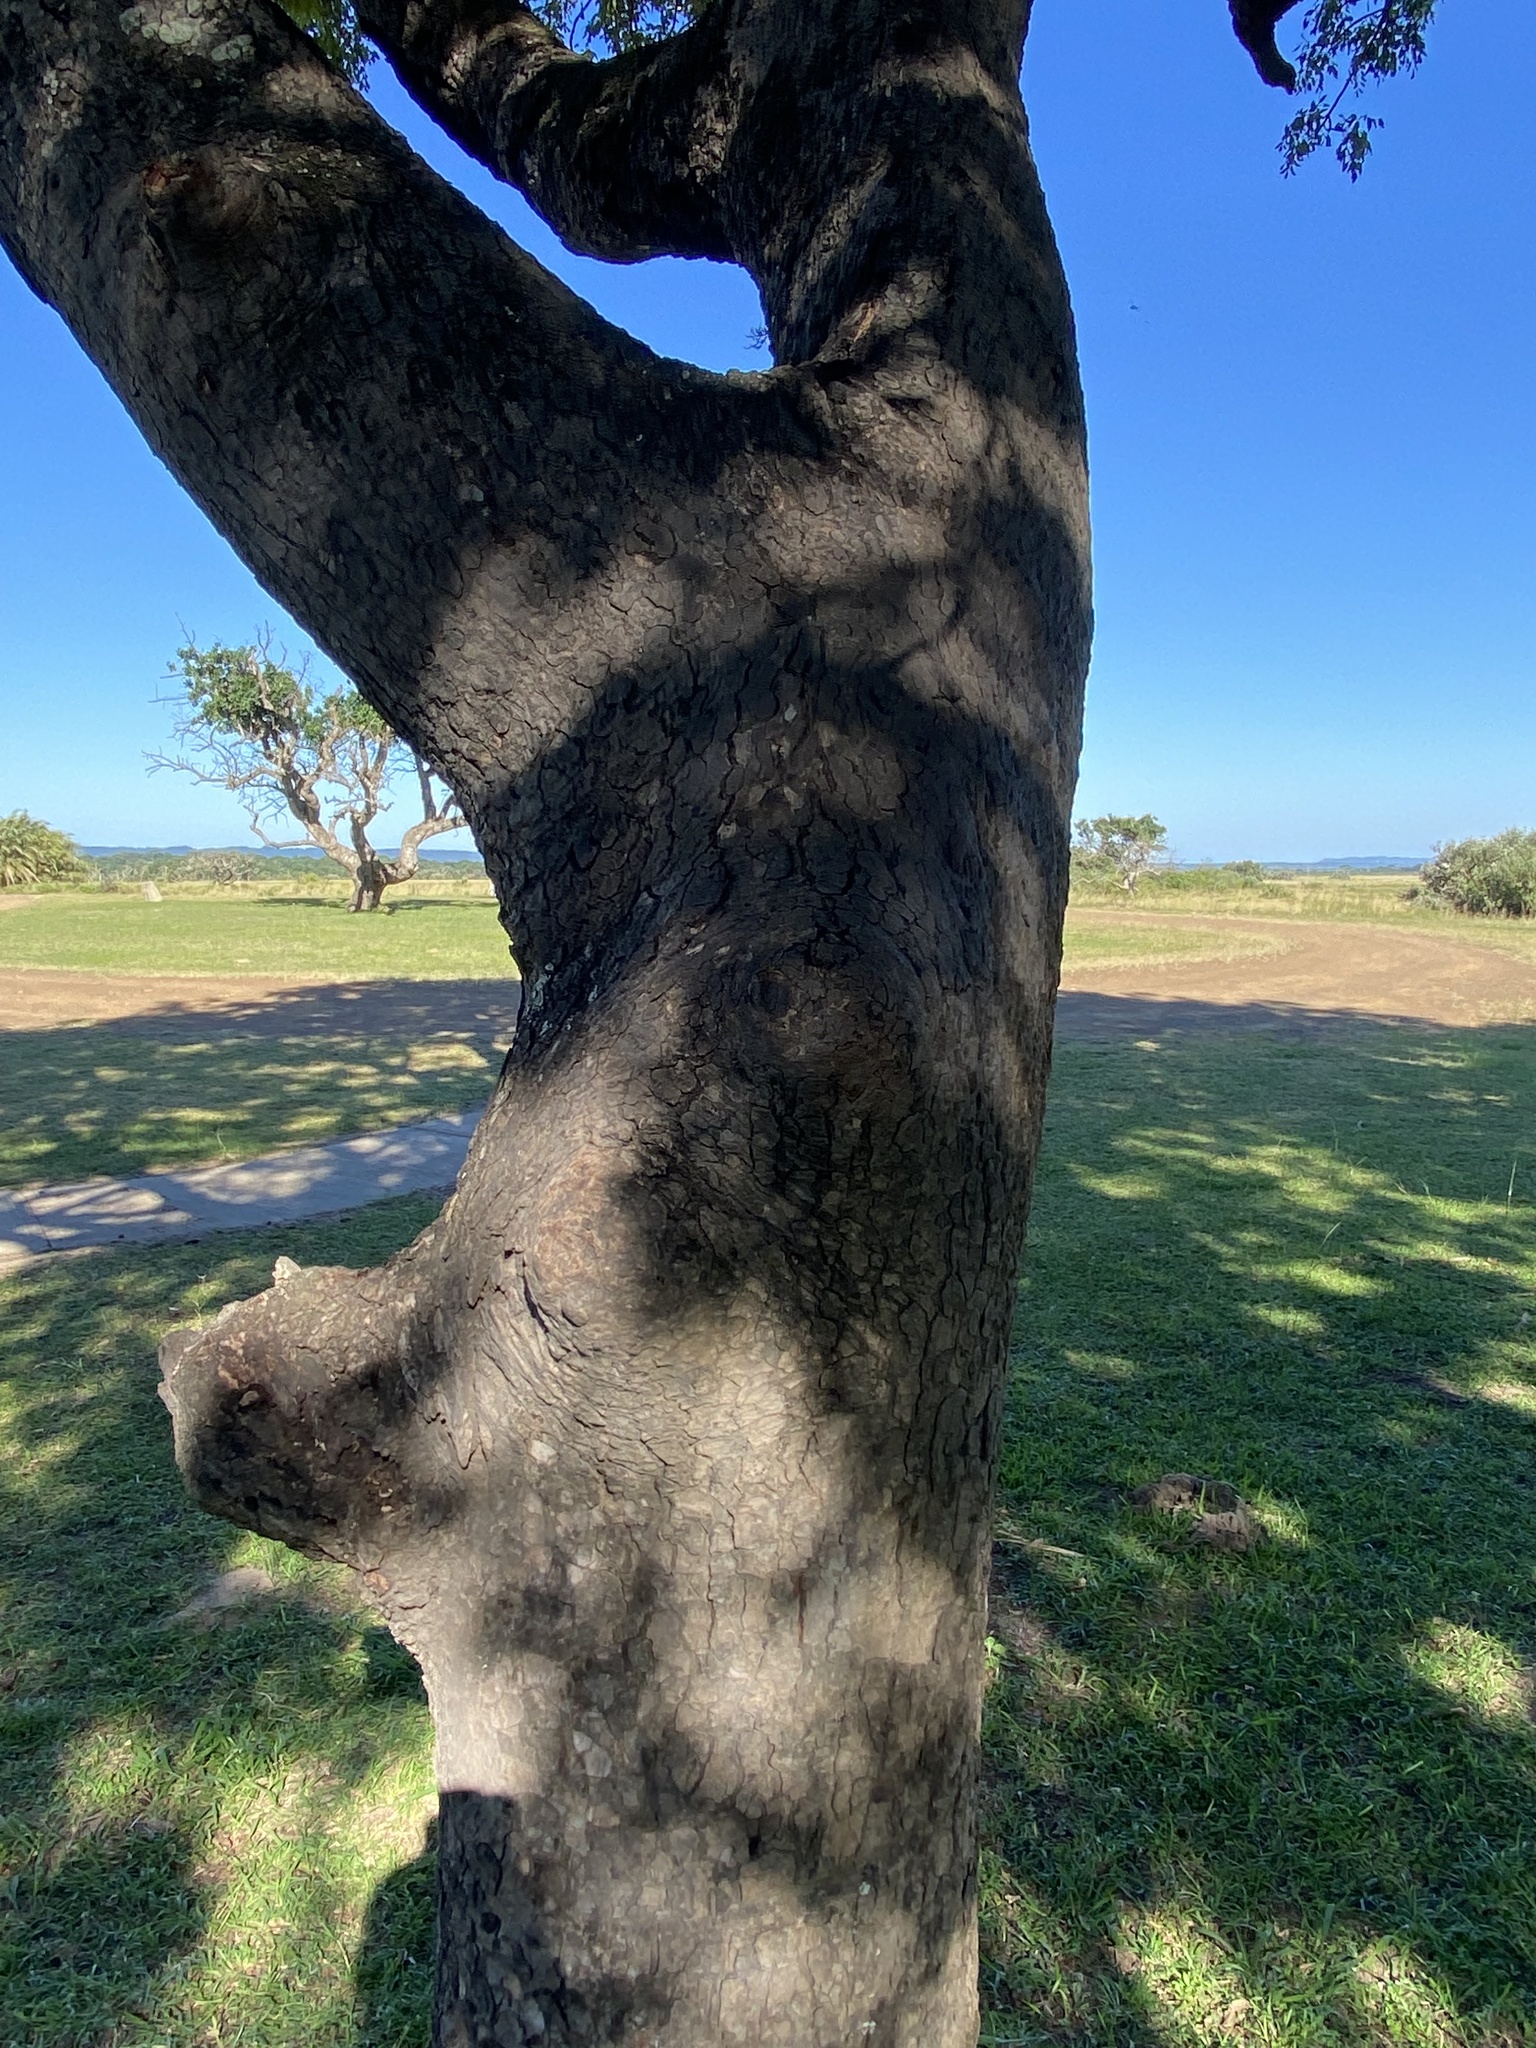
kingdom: Plantae
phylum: Tracheophyta
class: Magnoliopsida
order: Sapindales
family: Anacardiaceae
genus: Sclerocarya
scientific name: Sclerocarya birrea
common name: Marula
